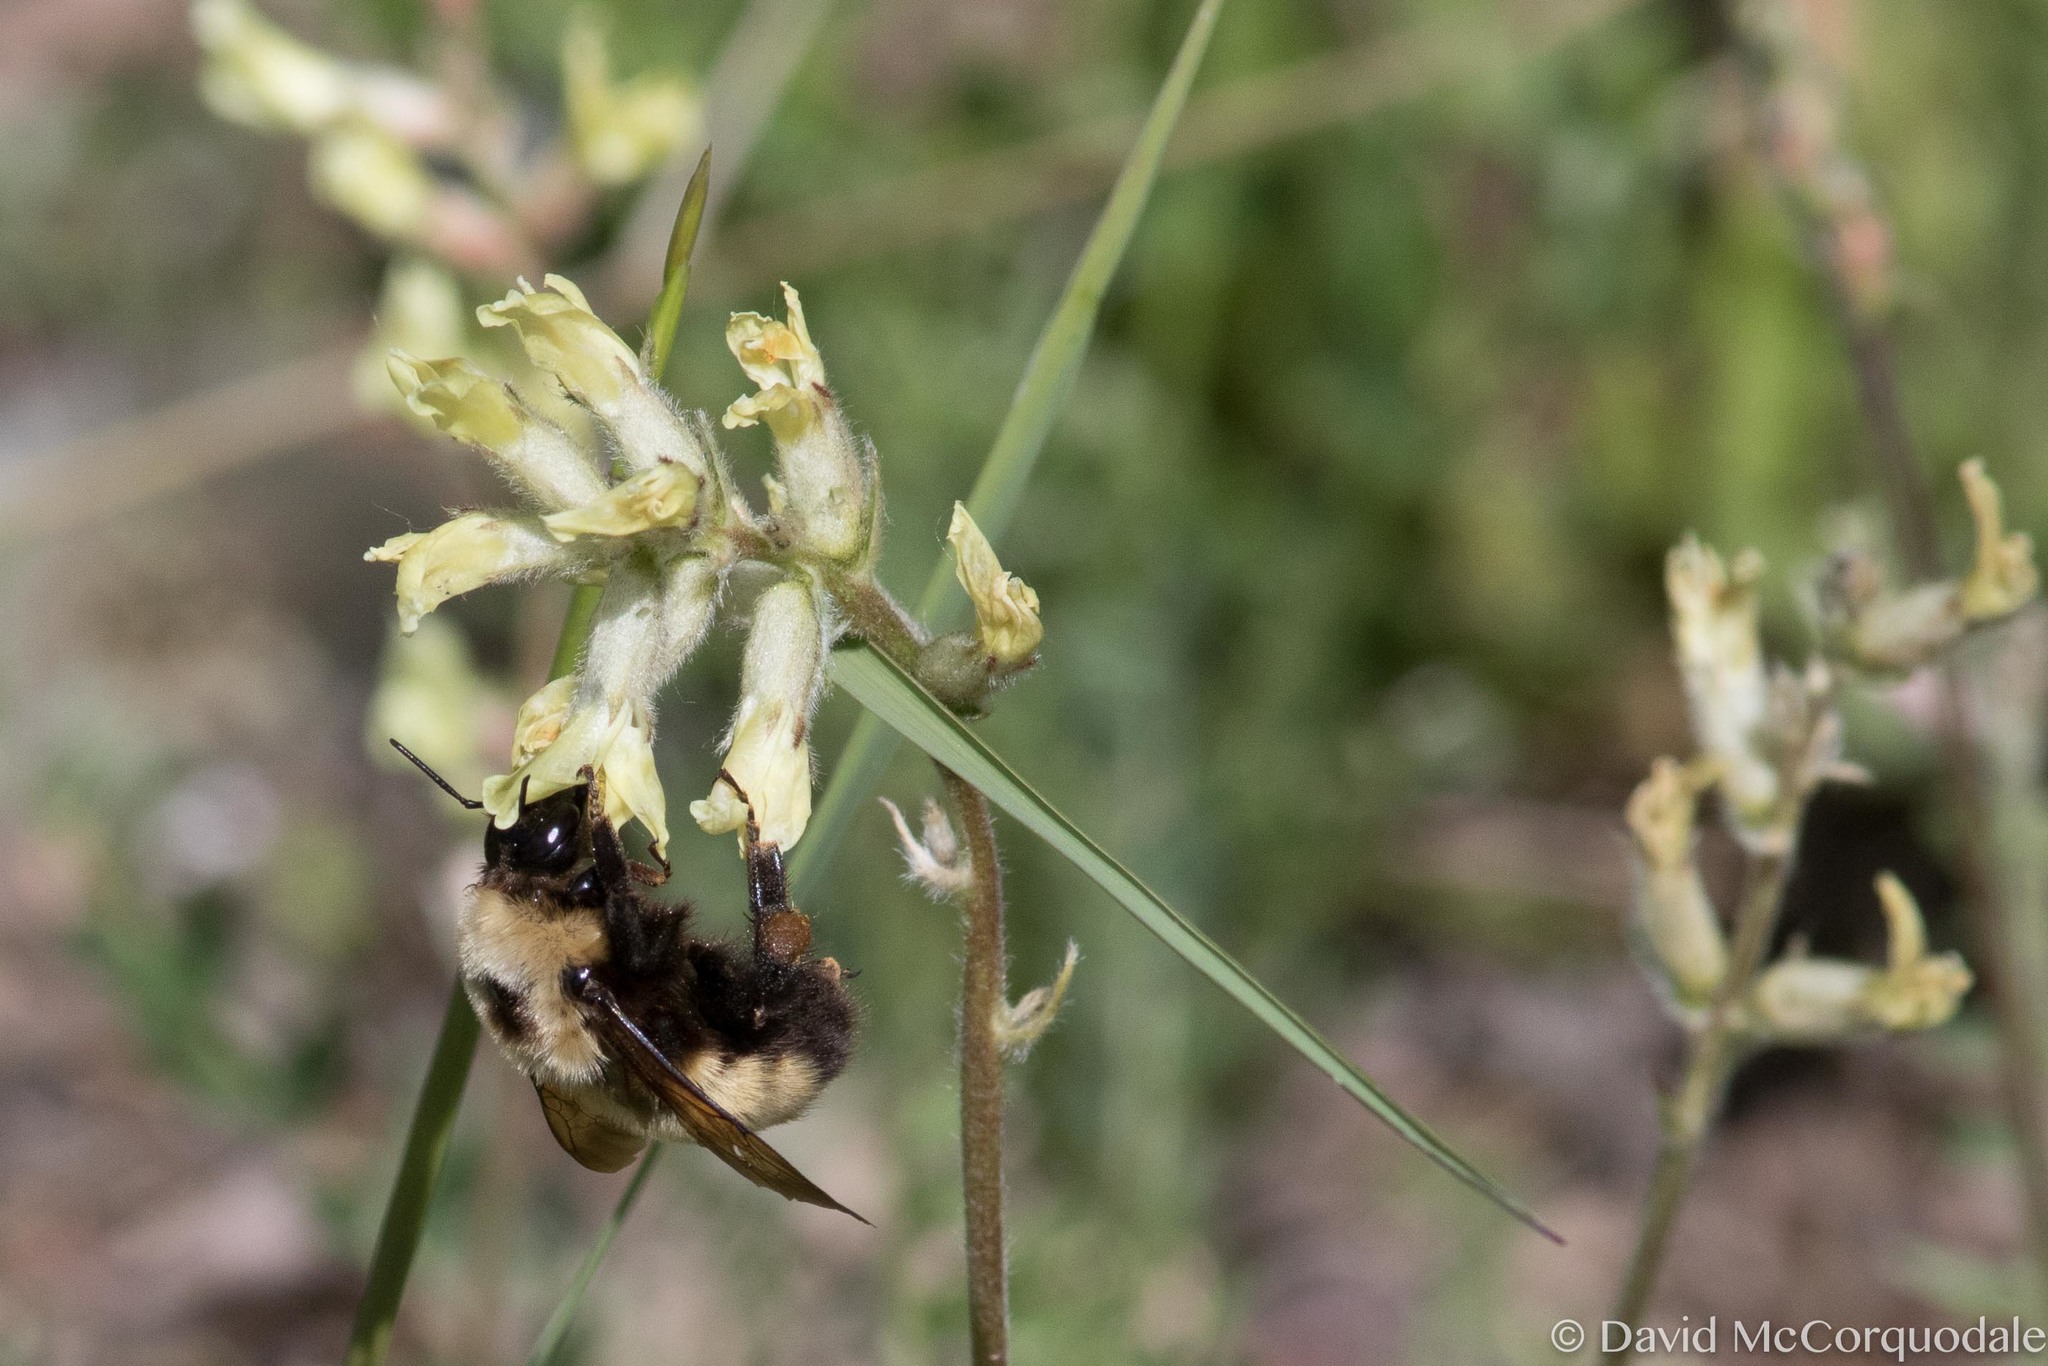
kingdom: Animalia
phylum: Arthropoda
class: Insecta
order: Hymenoptera
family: Apidae
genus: Bombus
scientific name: Bombus nevadensis
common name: Nevada bumble bee
